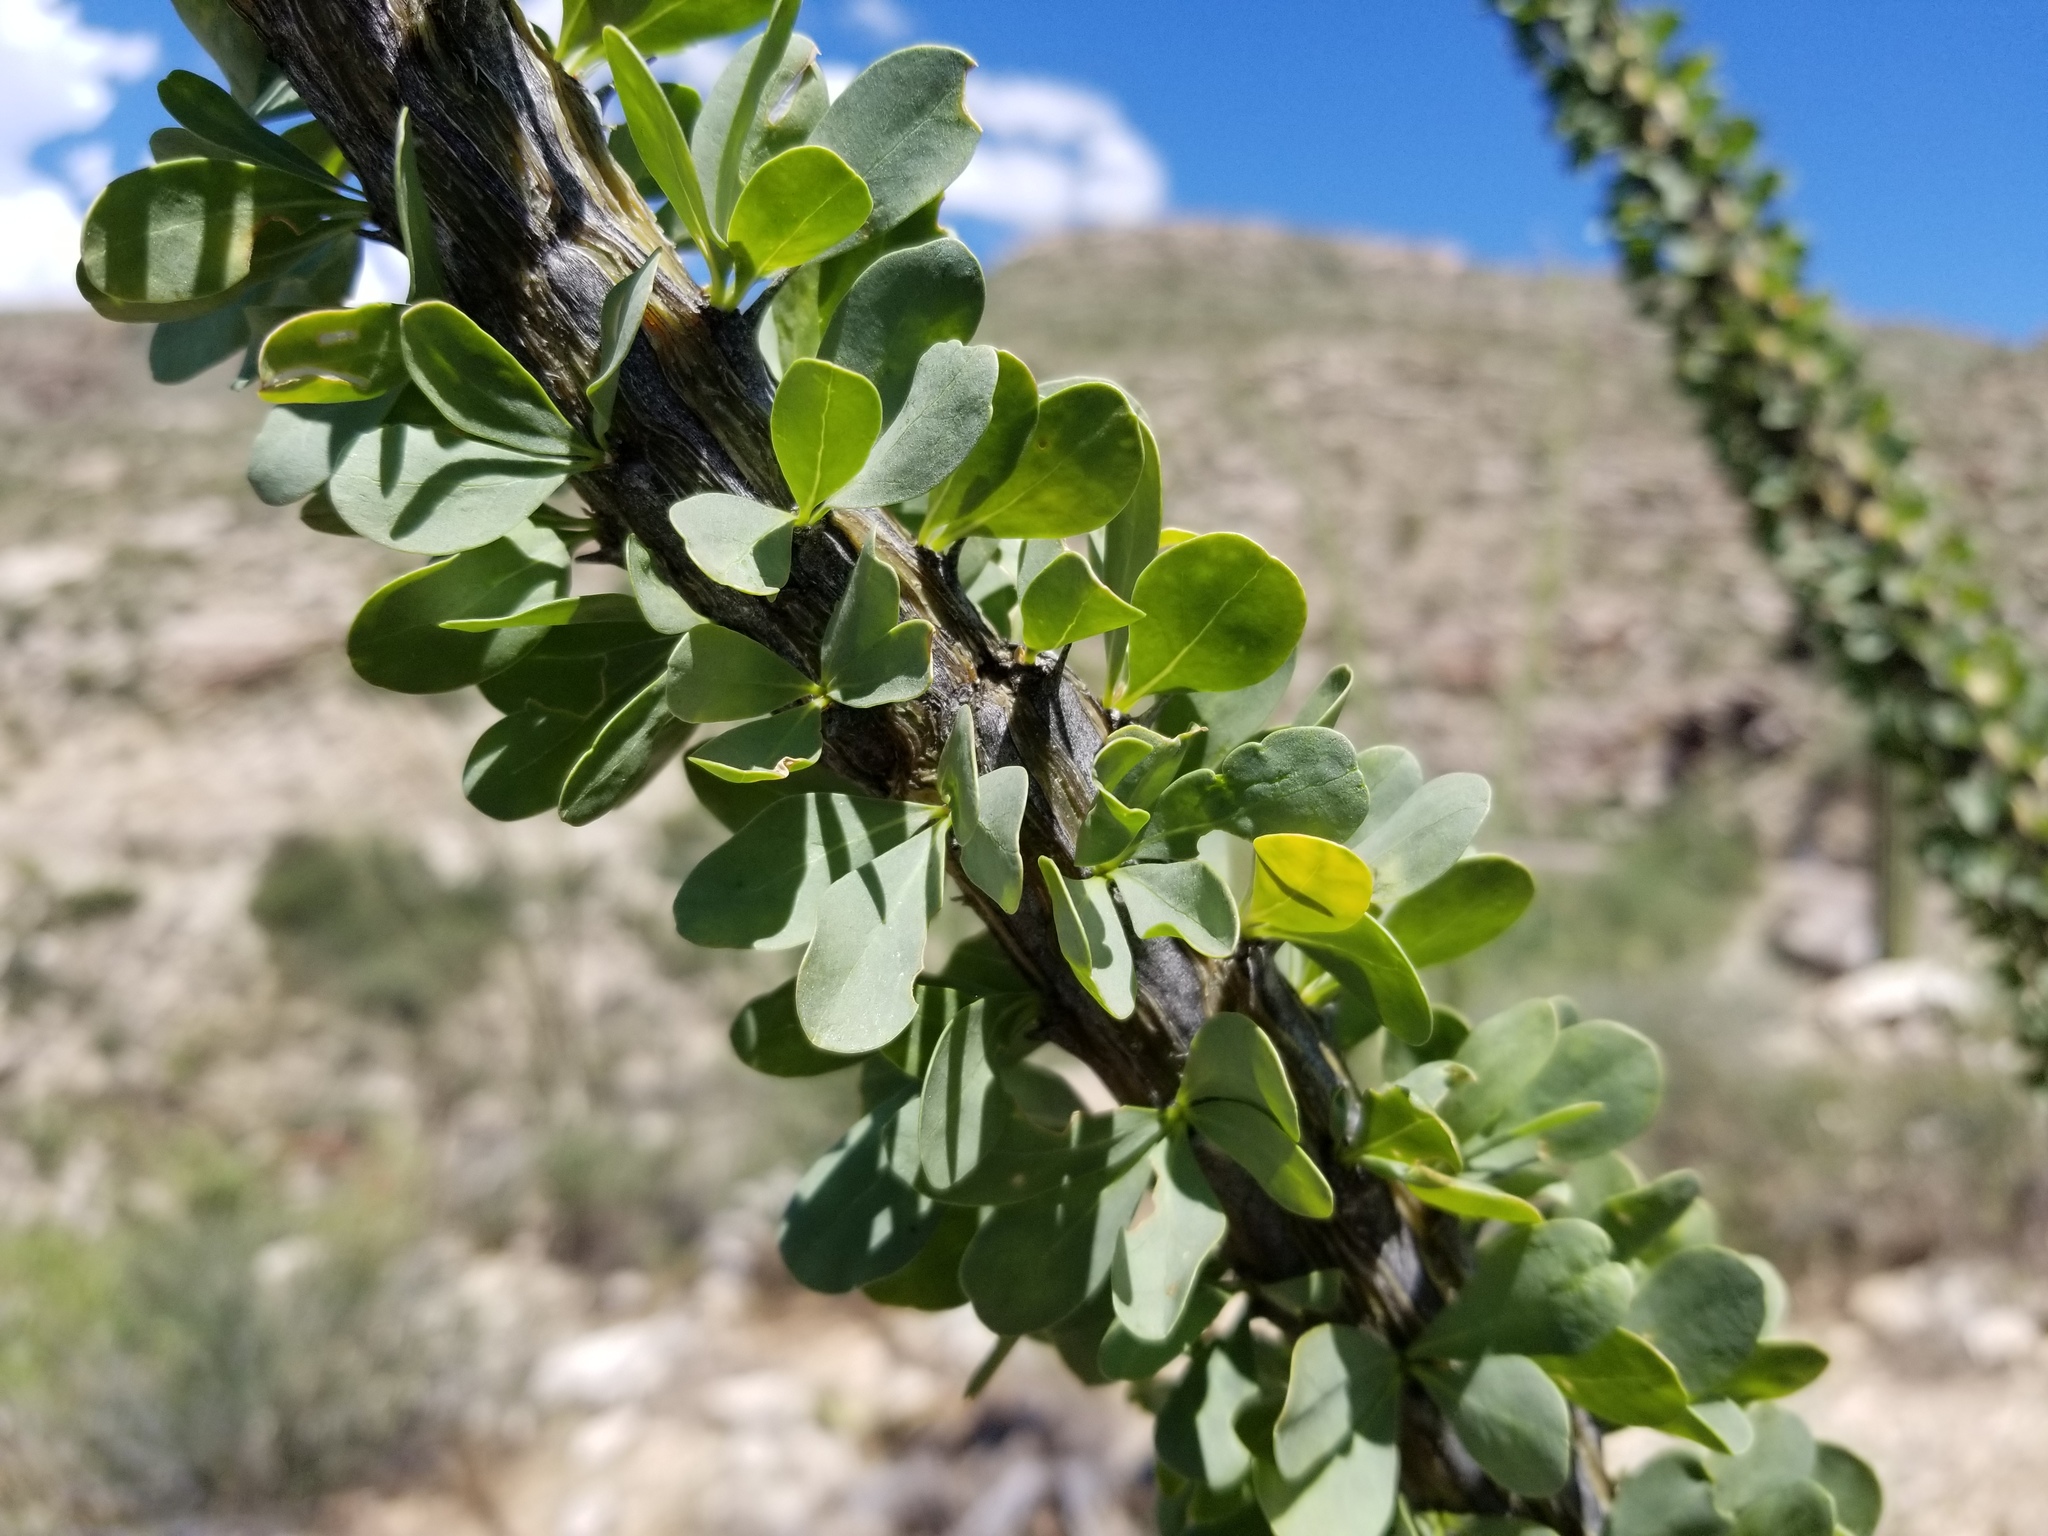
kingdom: Plantae
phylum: Tracheophyta
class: Magnoliopsida
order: Ericales
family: Fouquieriaceae
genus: Fouquieria
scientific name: Fouquieria splendens
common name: Vine-cactus
